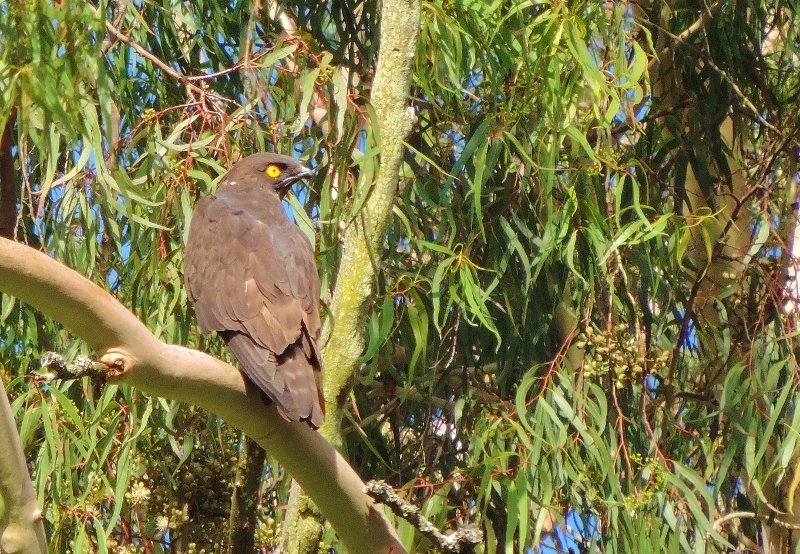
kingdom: Animalia
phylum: Chordata
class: Aves
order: Accipitriformes
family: Accipitridae
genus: Macheiramphus
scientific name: Macheiramphus alcinus
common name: Bat hawk
